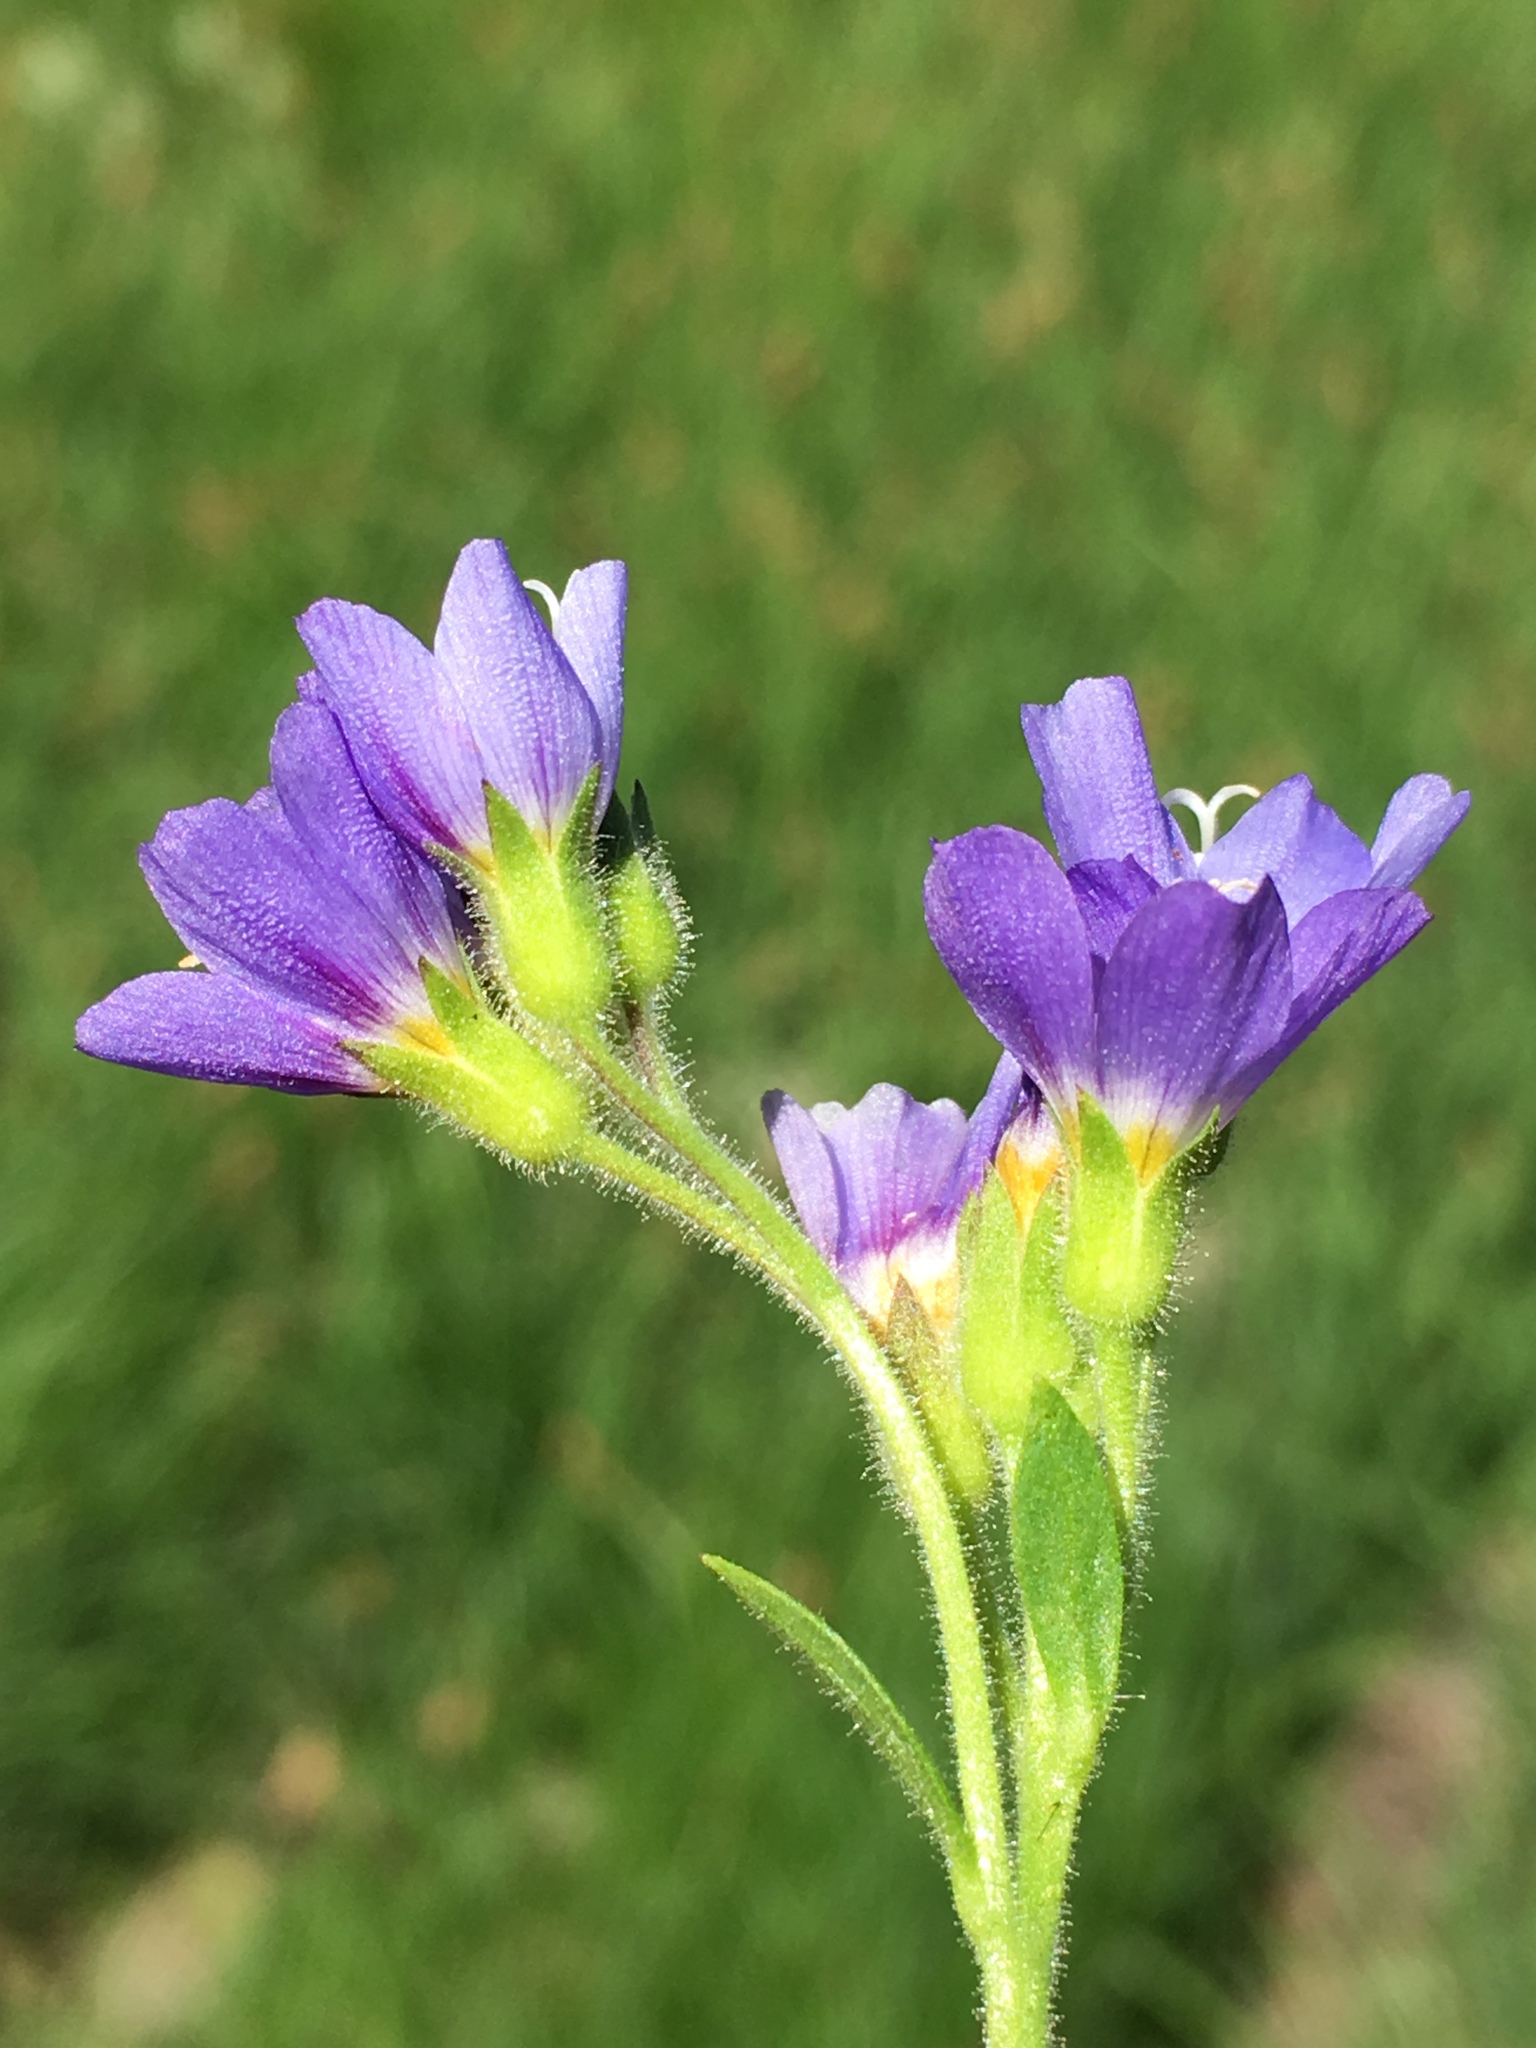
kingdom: Plantae
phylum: Tracheophyta
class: Magnoliopsida
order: Ericales
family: Polemoniaceae
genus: Polemonium
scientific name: Polemonium californicum
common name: California jacob's ladder
